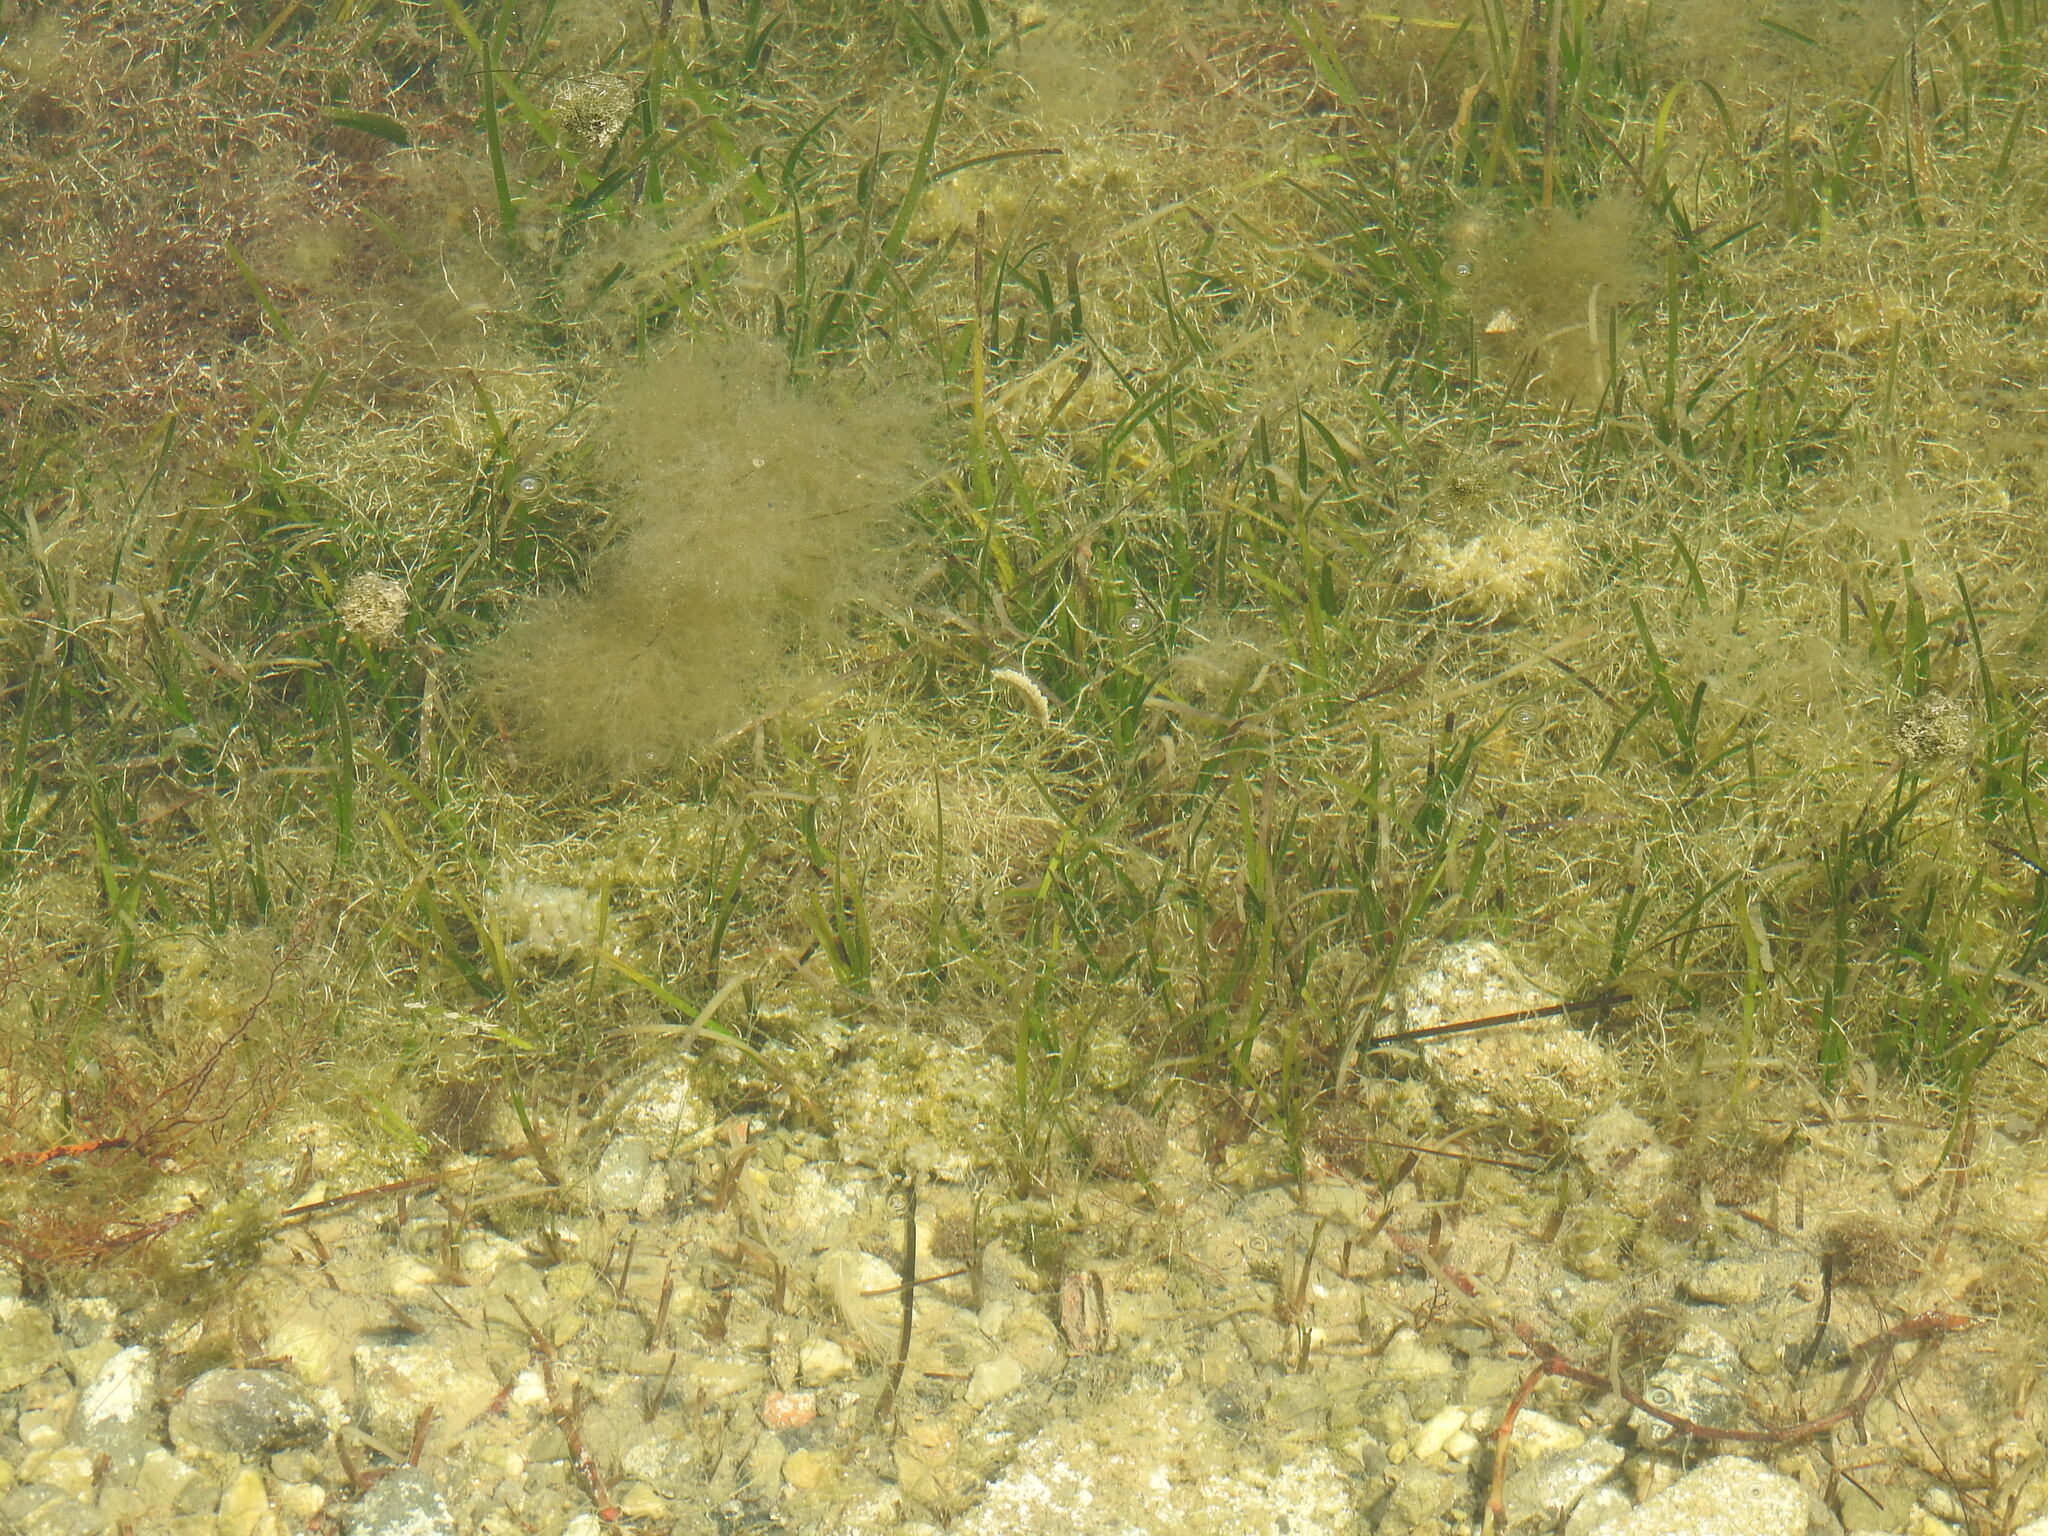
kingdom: Plantae
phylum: Tracheophyta
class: Liliopsida
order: Alismatales
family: Cymodoceaceae
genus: Cymodocea
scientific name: Cymodocea nodosa
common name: Slender seagrass
